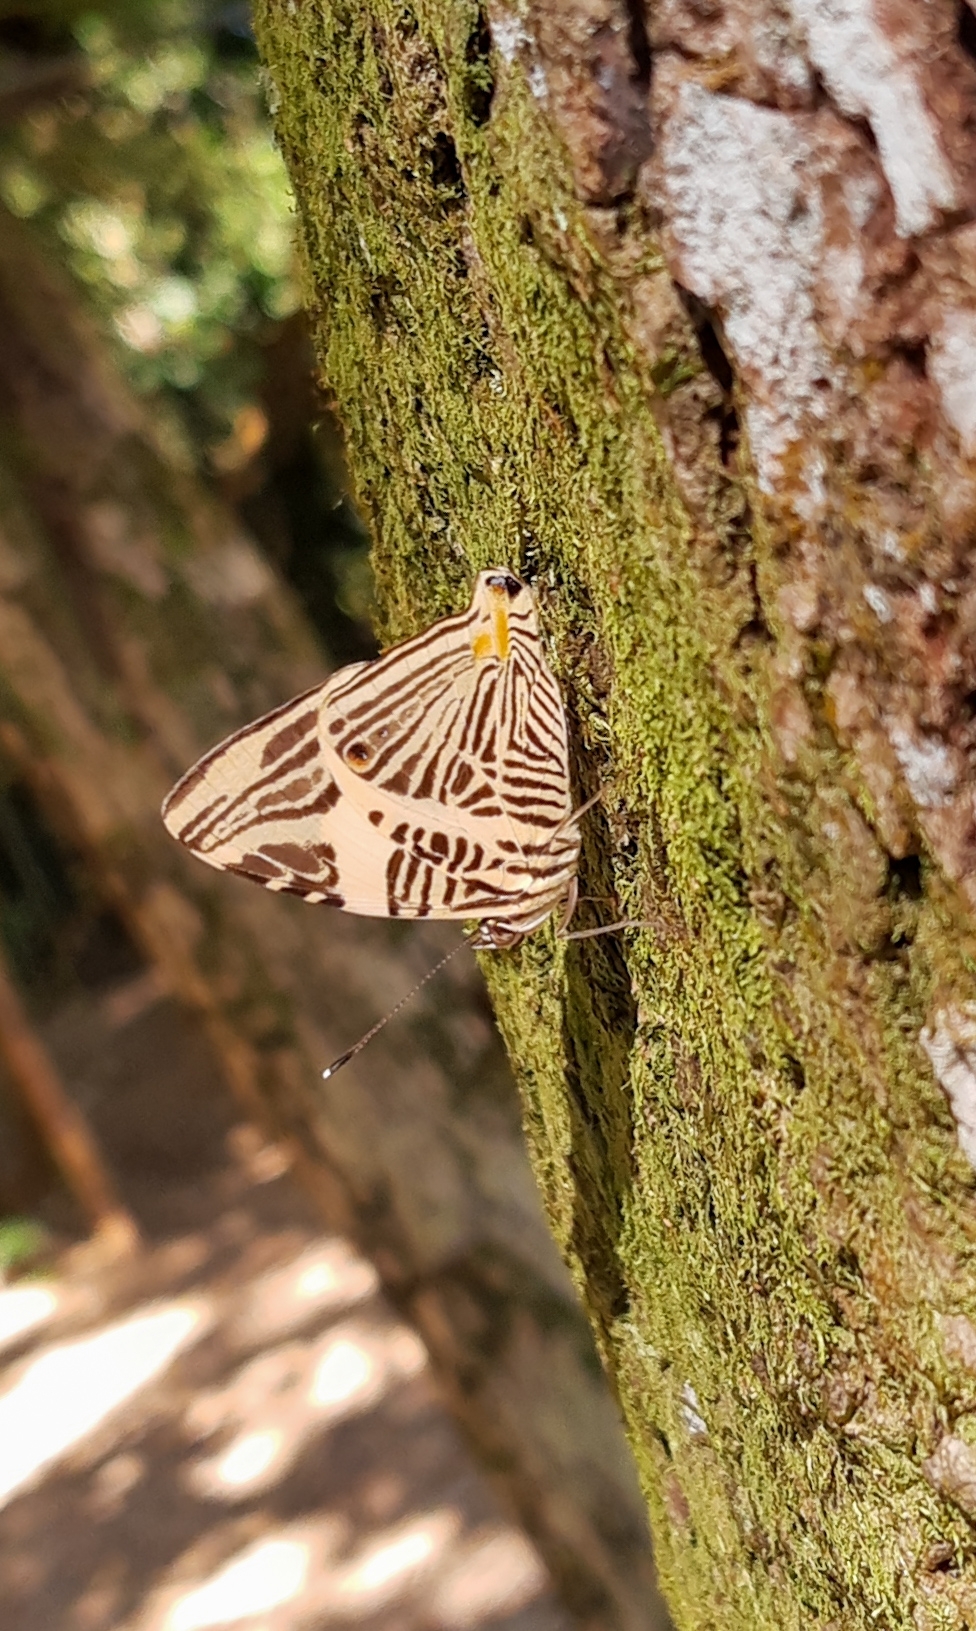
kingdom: Animalia
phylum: Arthropoda
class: Insecta
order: Lepidoptera
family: Nymphalidae
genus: Colobura
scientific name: Colobura dirce
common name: Dirce beauty
